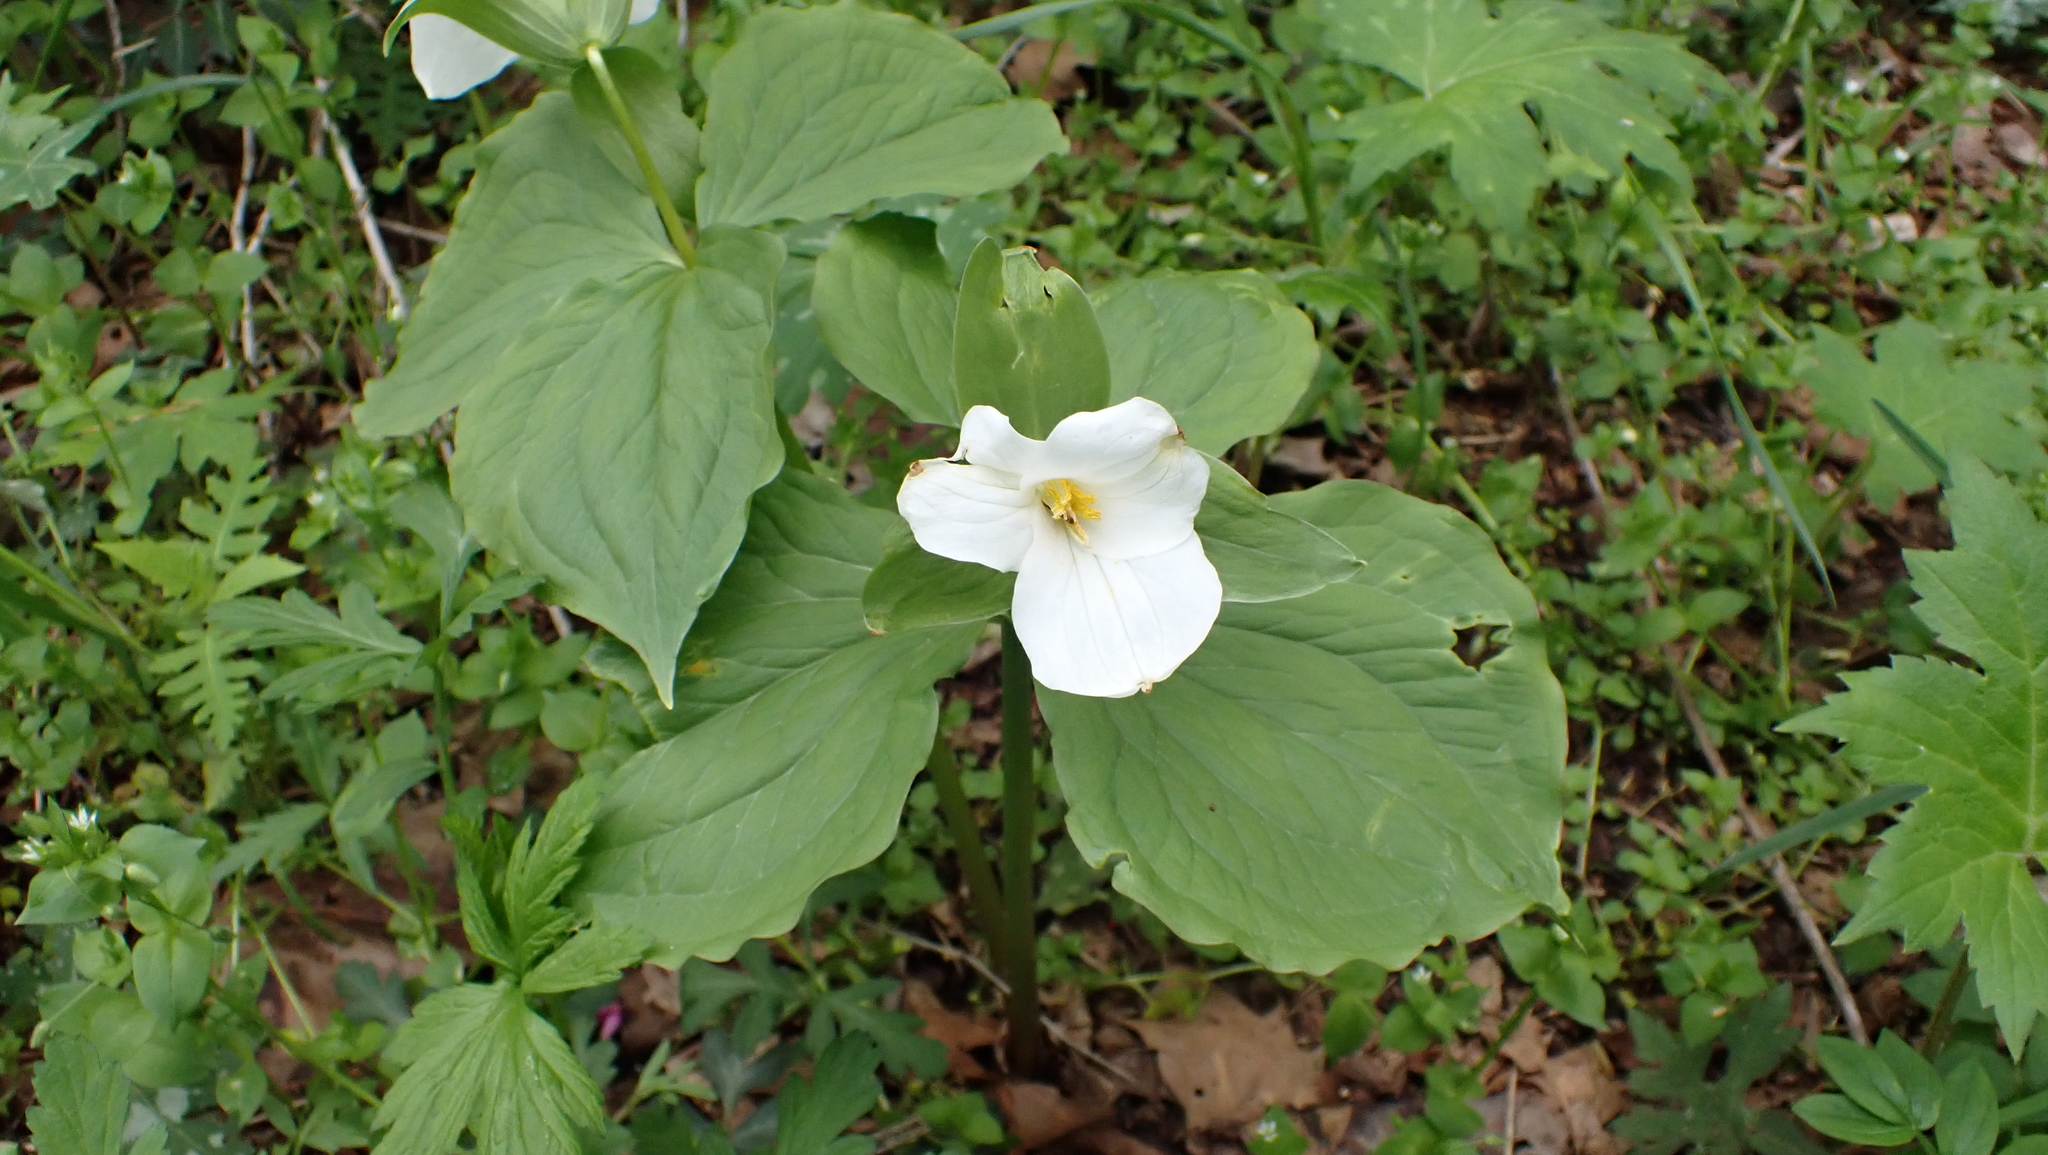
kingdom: Plantae
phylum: Tracheophyta
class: Liliopsida
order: Liliales
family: Melanthiaceae
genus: Trillium
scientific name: Trillium grandiflorum
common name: Great white trillium
